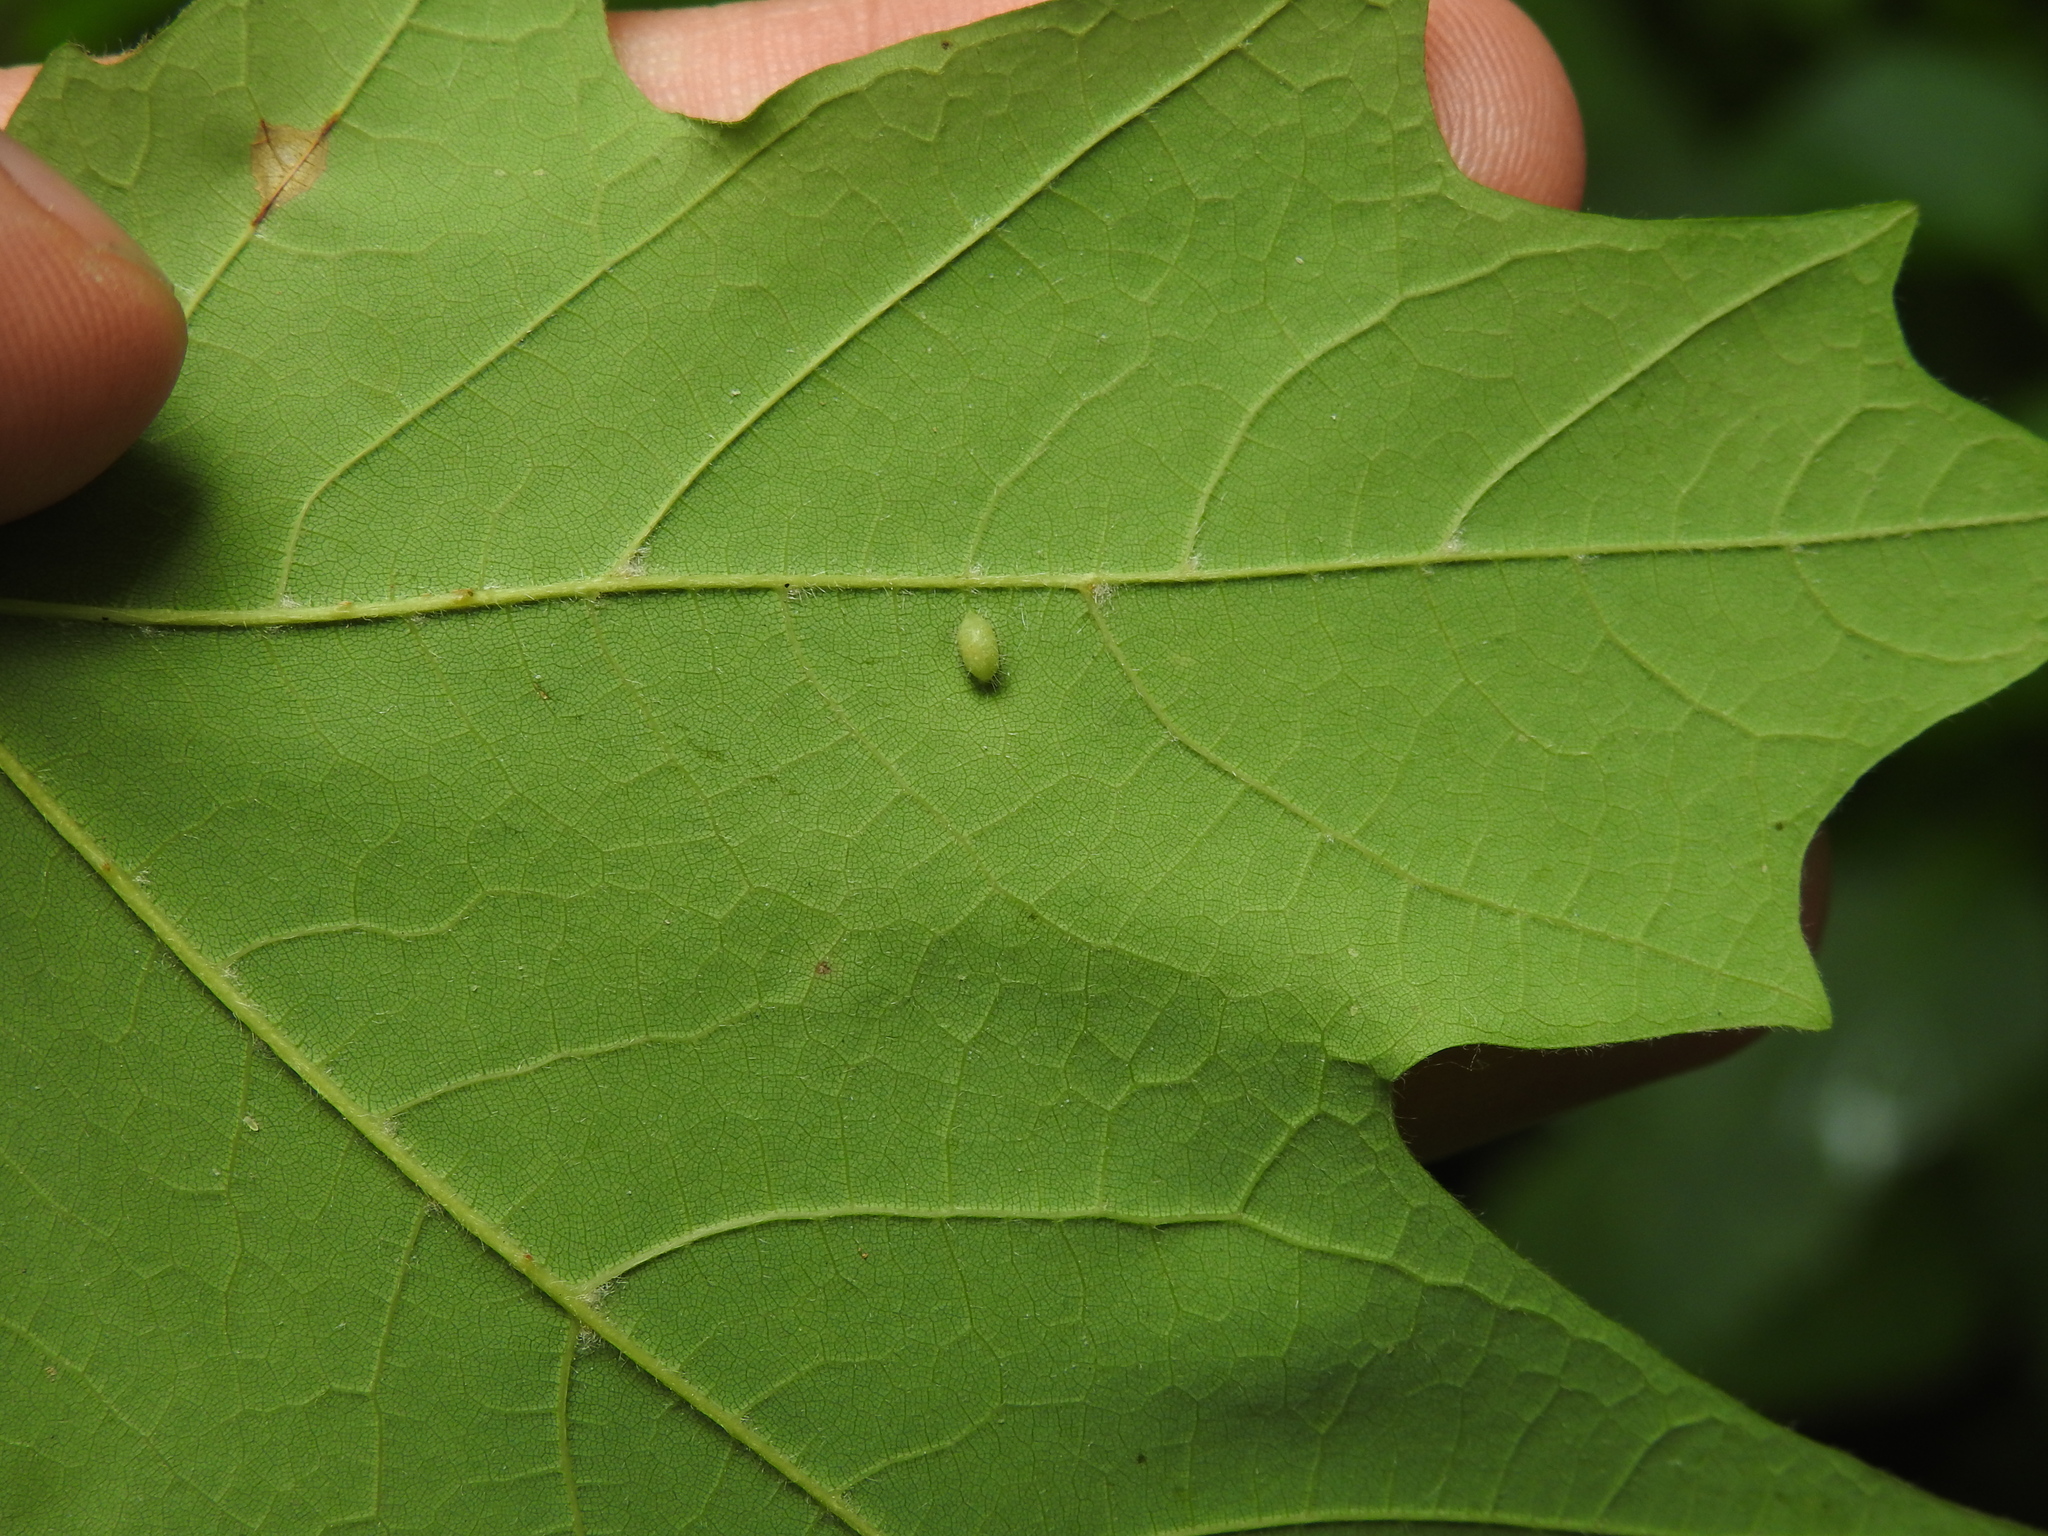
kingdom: Animalia
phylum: Arthropoda
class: Insecta
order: Diptera
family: Cecidomyiidae
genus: Dasineura
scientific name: Dasineura communis
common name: Gouty vein midge
